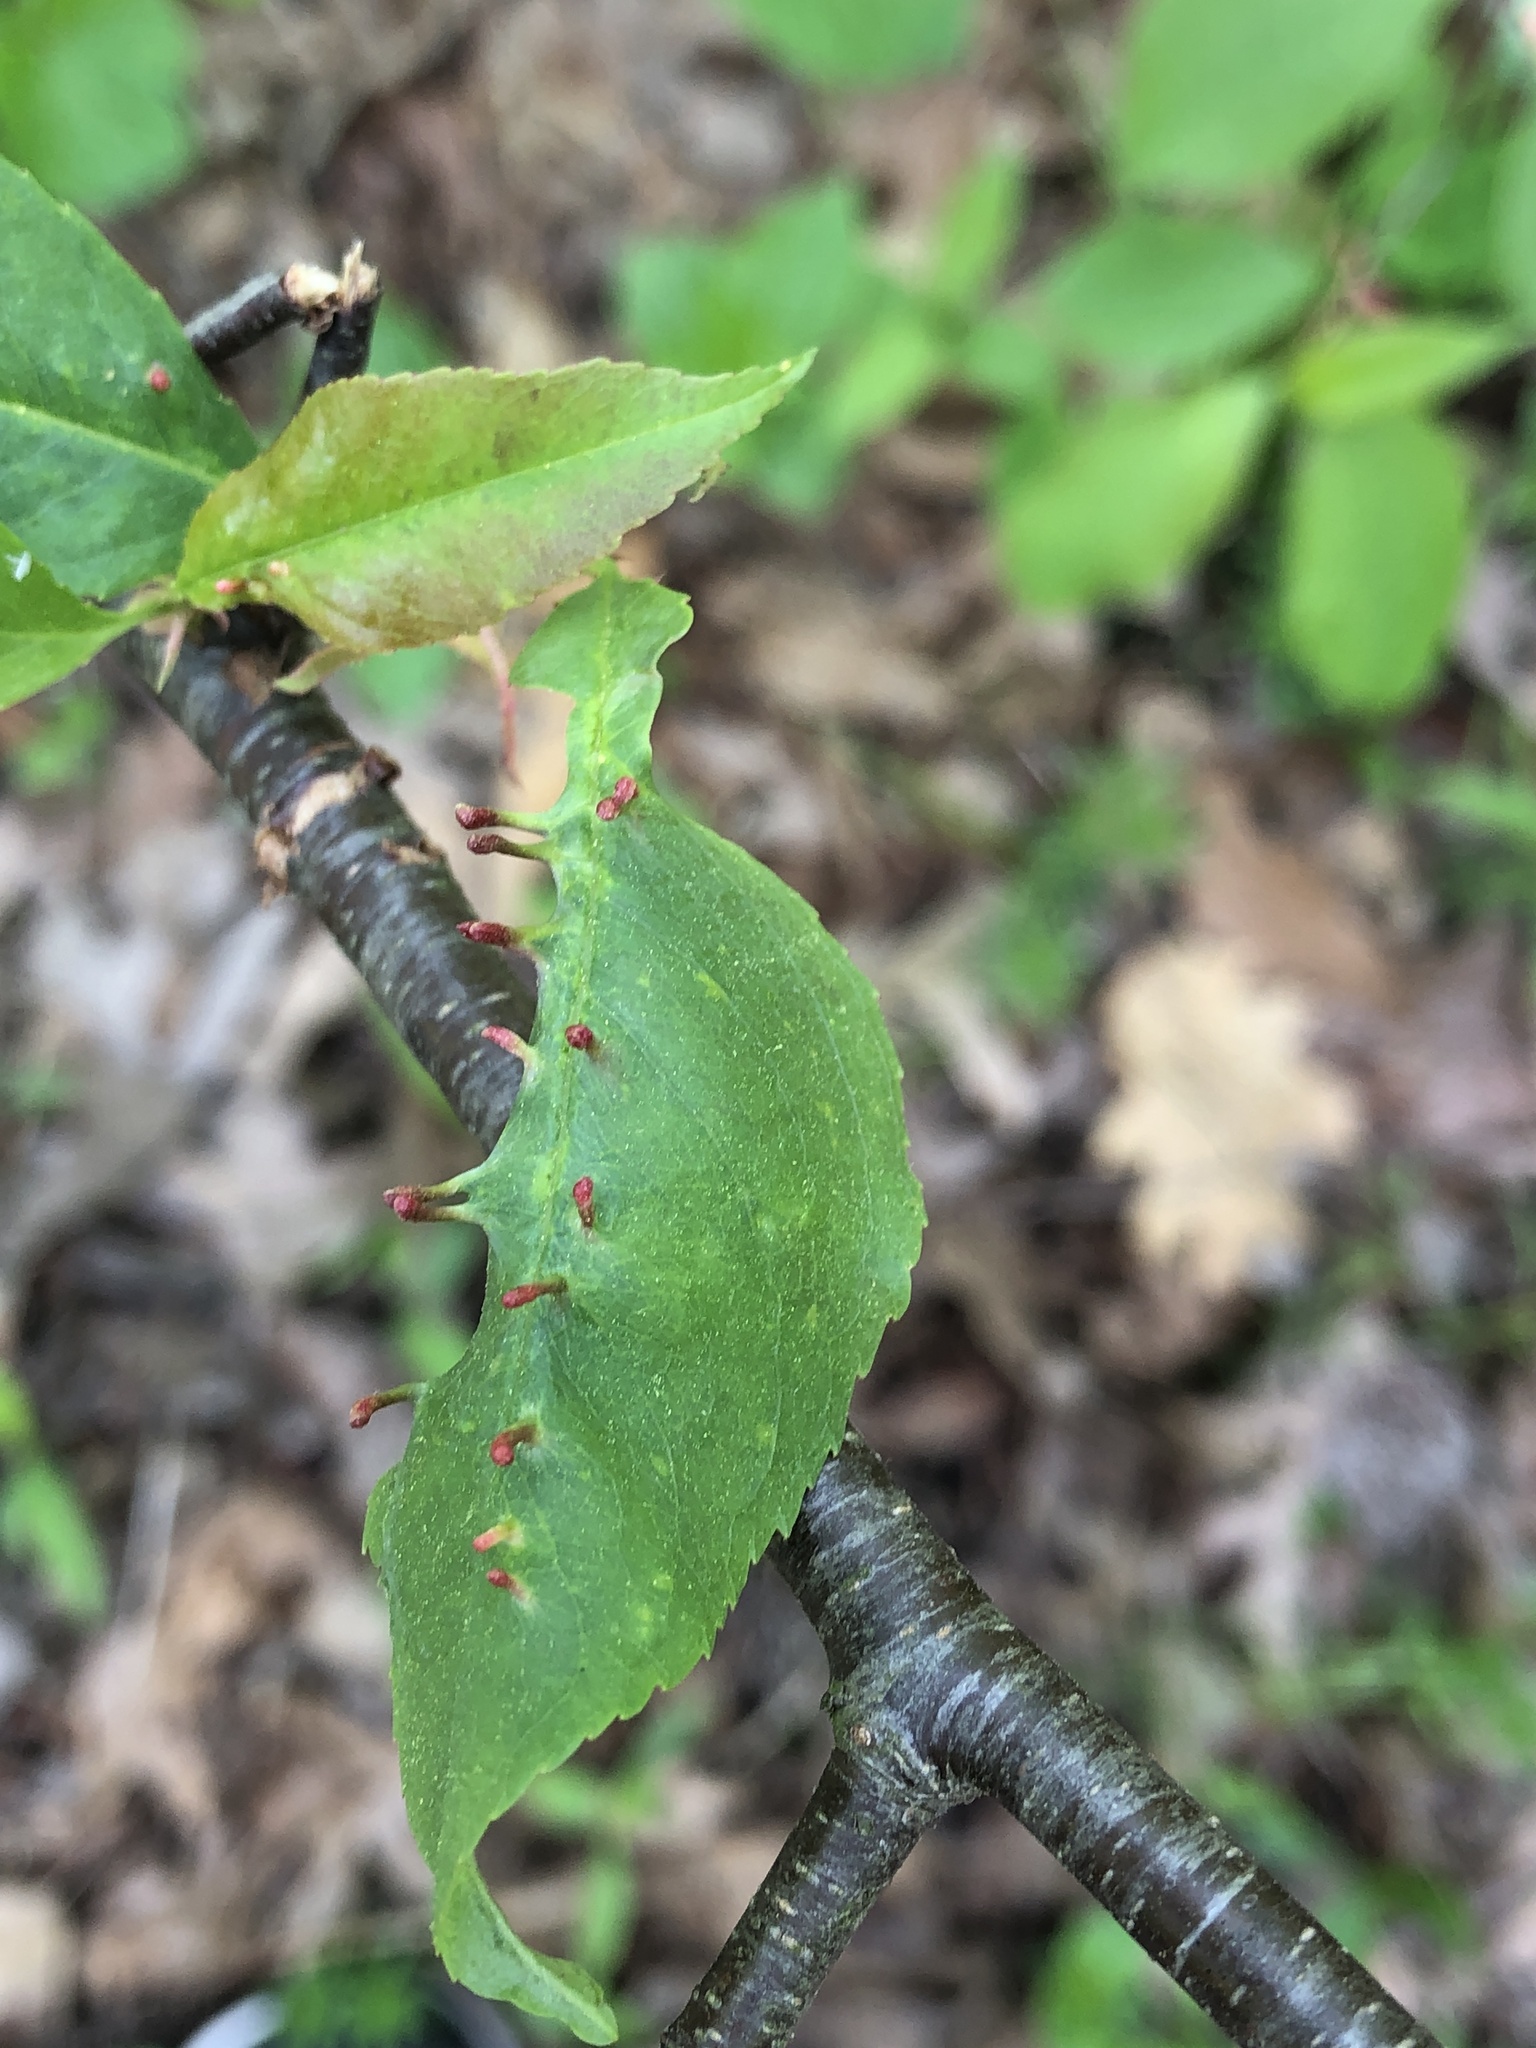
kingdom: Animalia
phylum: Arthropoda
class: Arachnida
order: Trombidiformes
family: Eriophyidae
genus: Eriophyes
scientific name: Eriophyes
